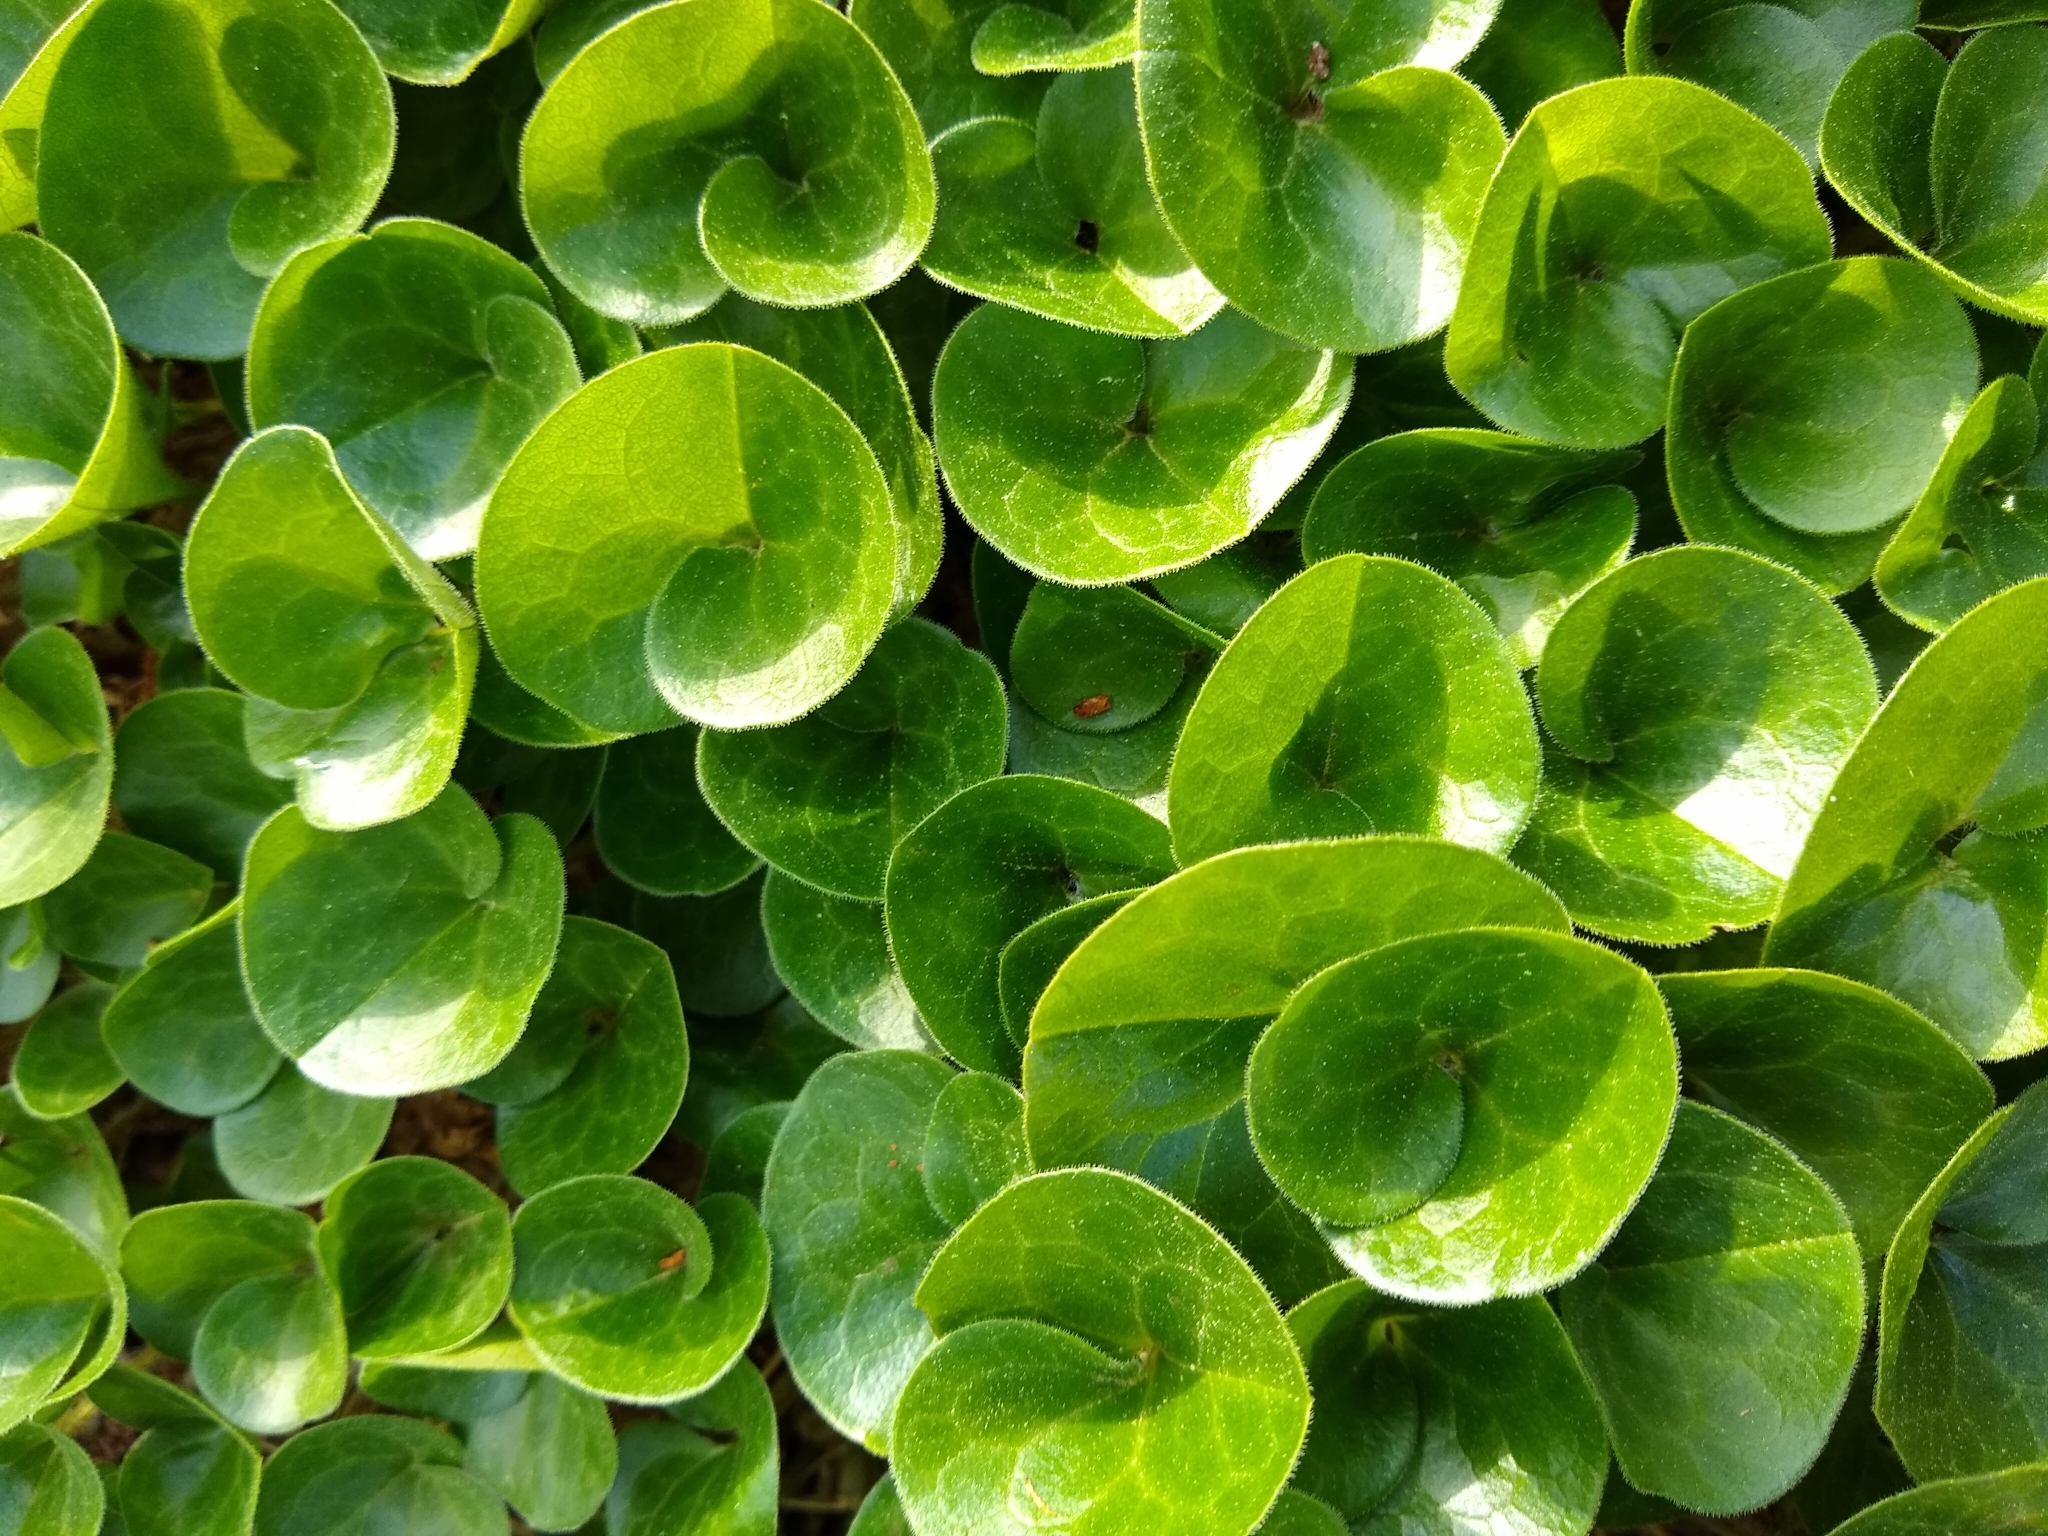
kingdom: Plantae
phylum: Tracheophyta
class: Magnoliopsida
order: Piperales
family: Aristolochiaceae
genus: Asarum
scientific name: Asarum europaeum
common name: Asarabacca
